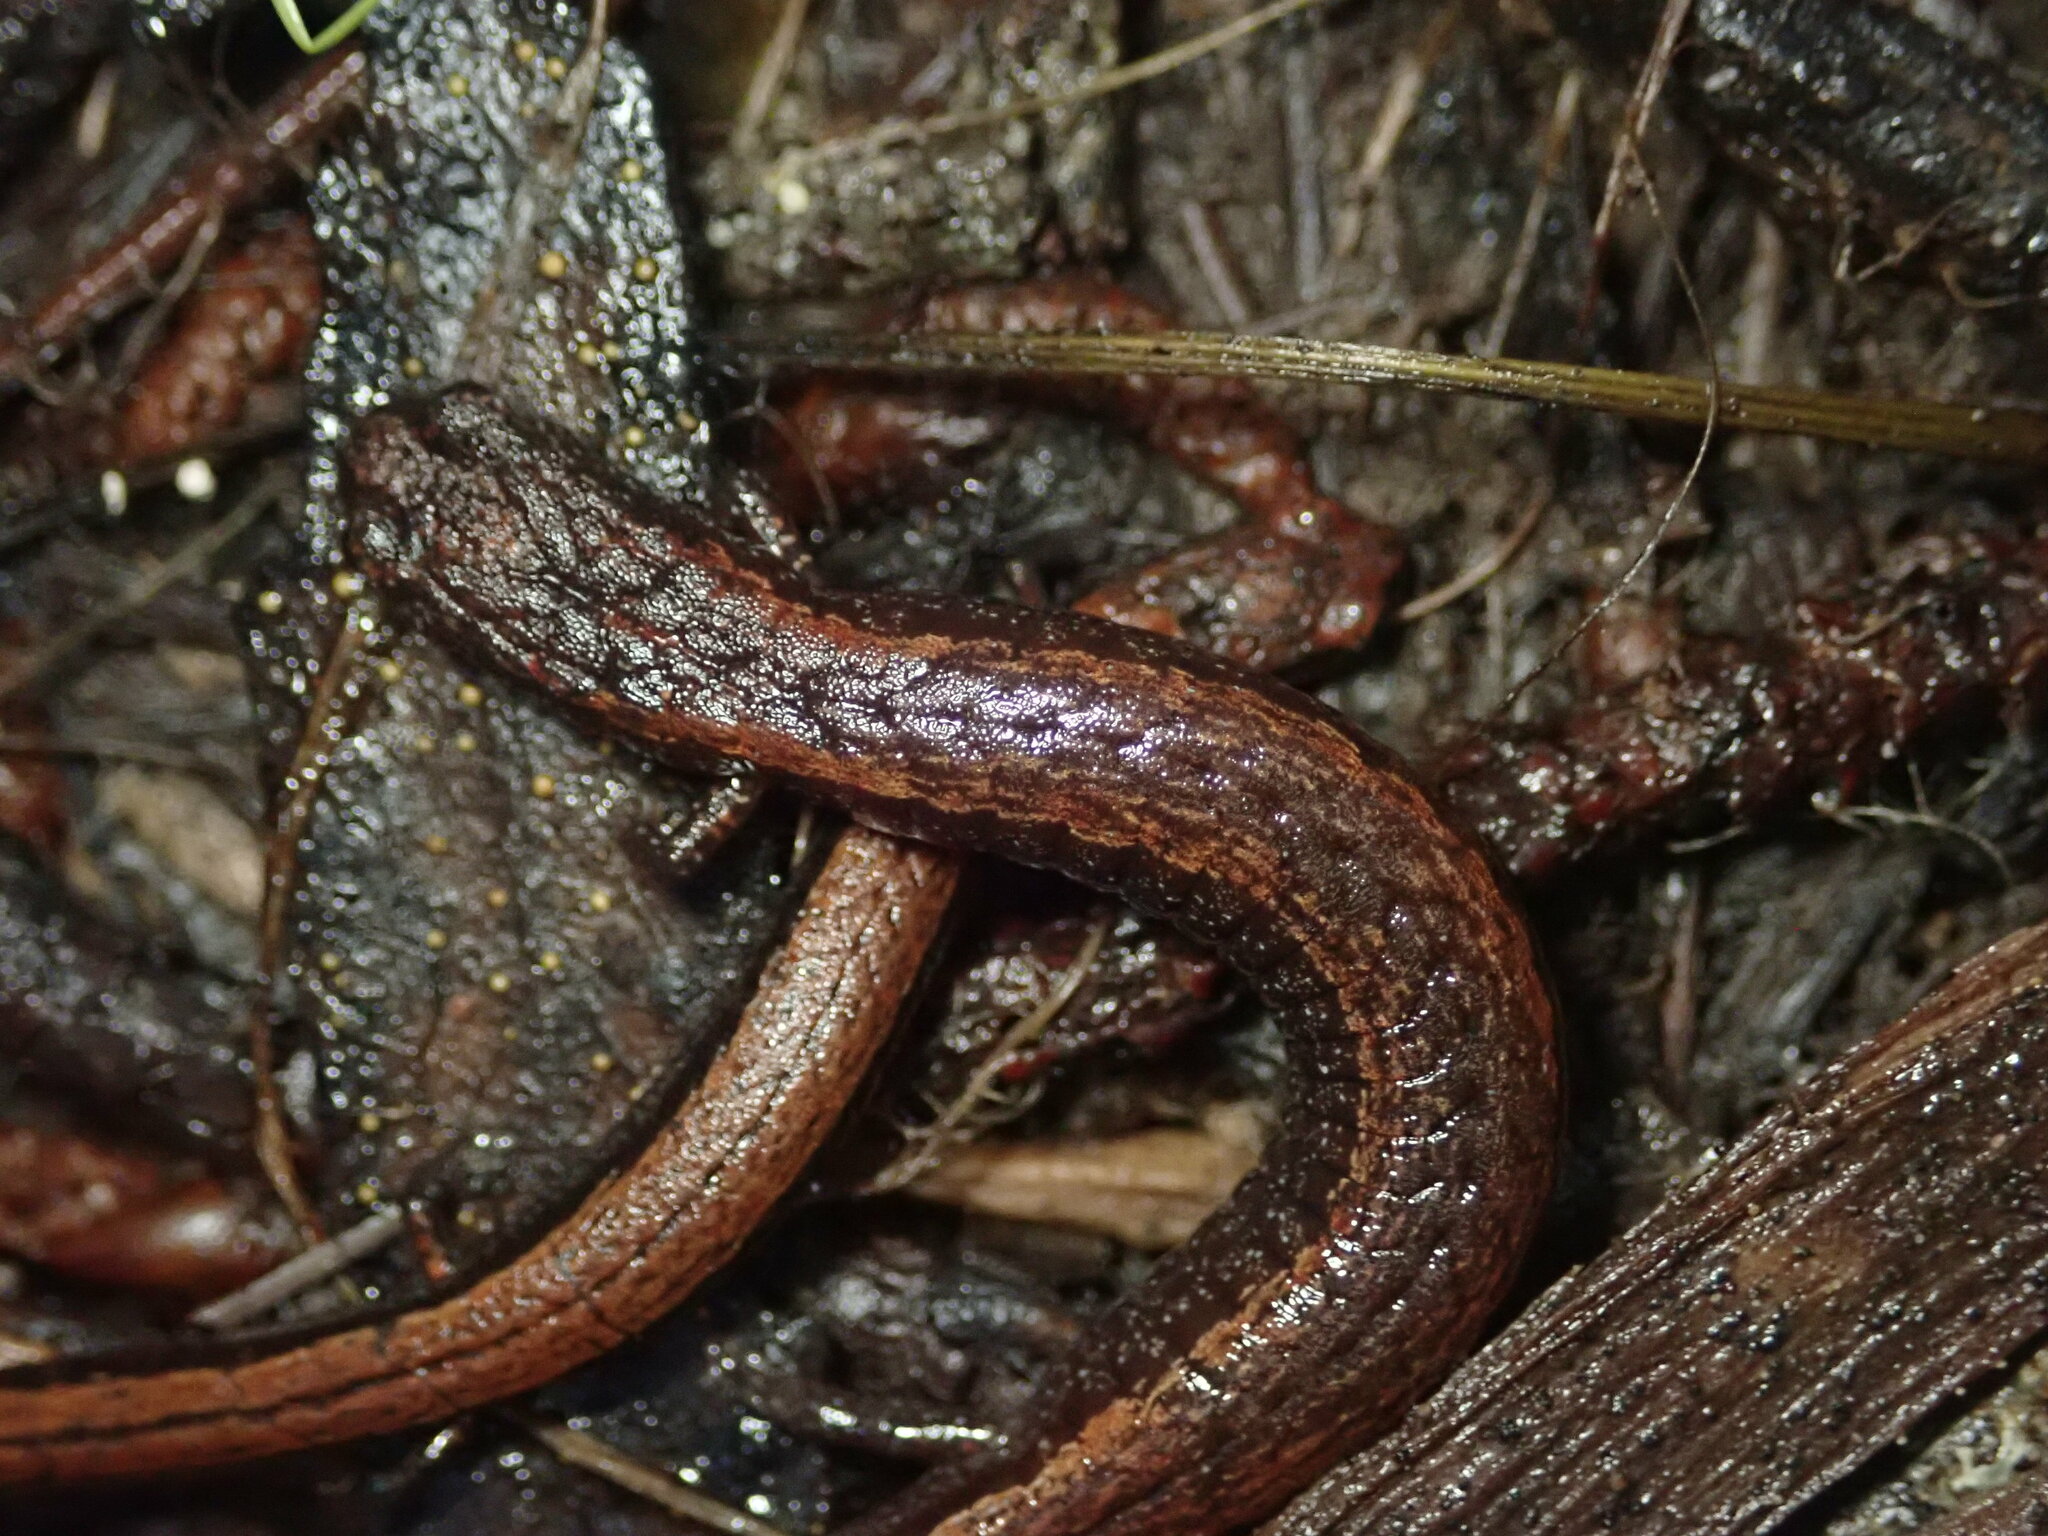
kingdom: Animalia
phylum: Chordata
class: Amphibia
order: Caudata
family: Plethodontidae
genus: Batrachoseps
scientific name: Batrachoseps attenuatus
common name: California slender salamander
